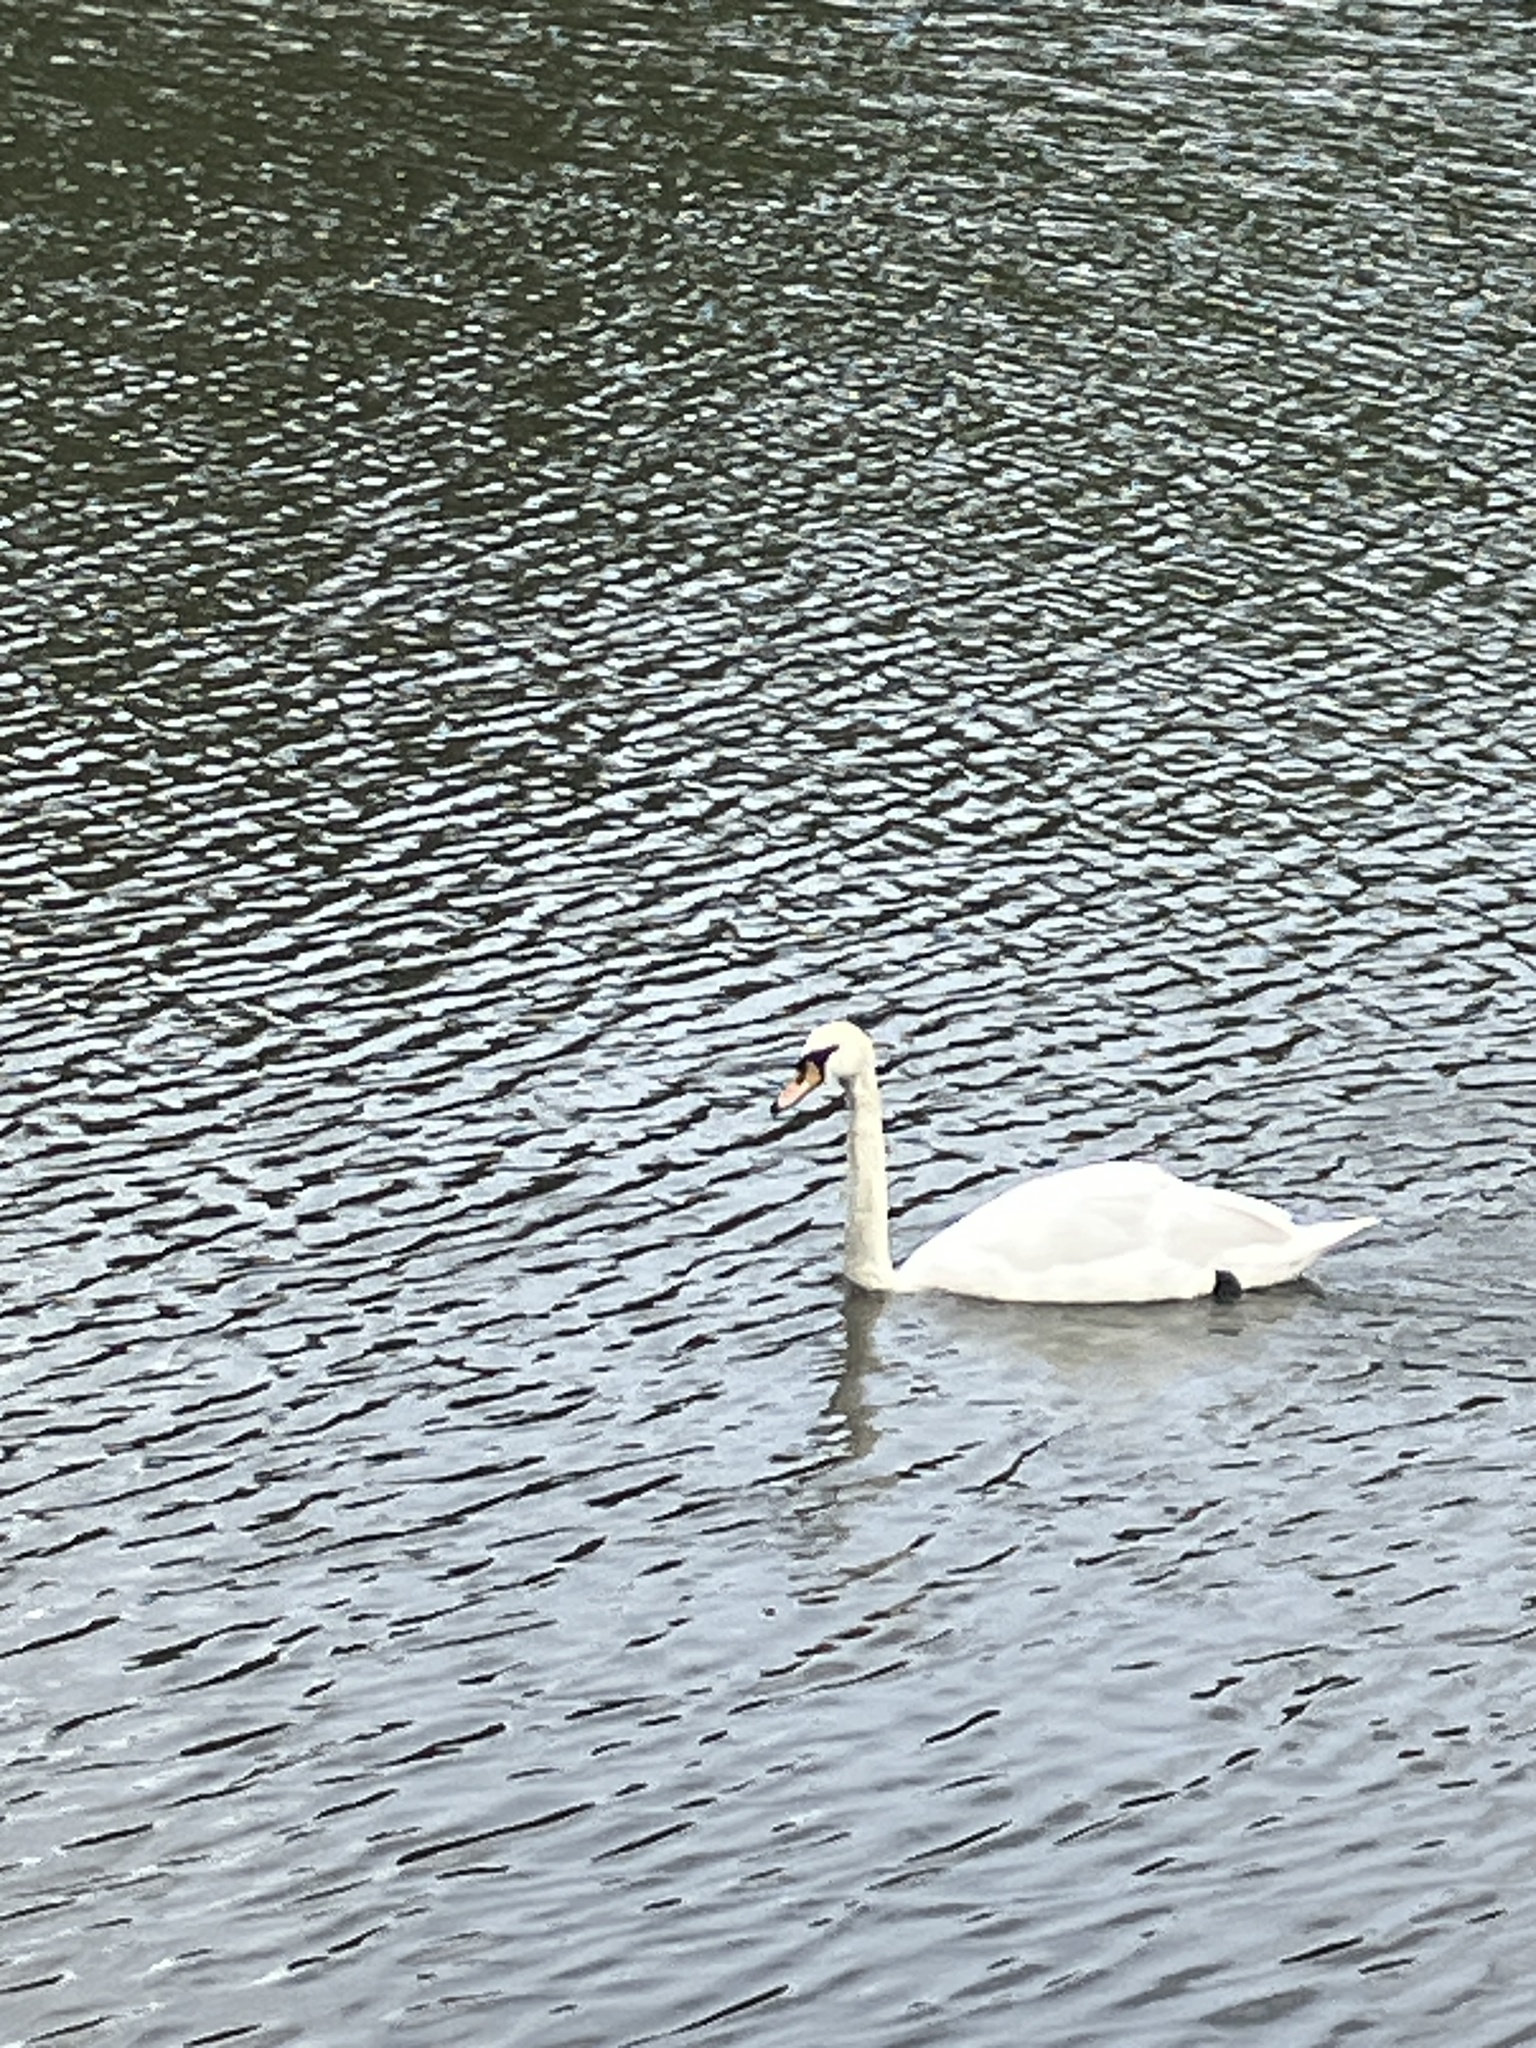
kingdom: Animalia
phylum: Chordata
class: Aves
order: Anseriformes
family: Anatidae
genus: Cygnus
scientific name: Cygnus olor
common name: Mute swan
